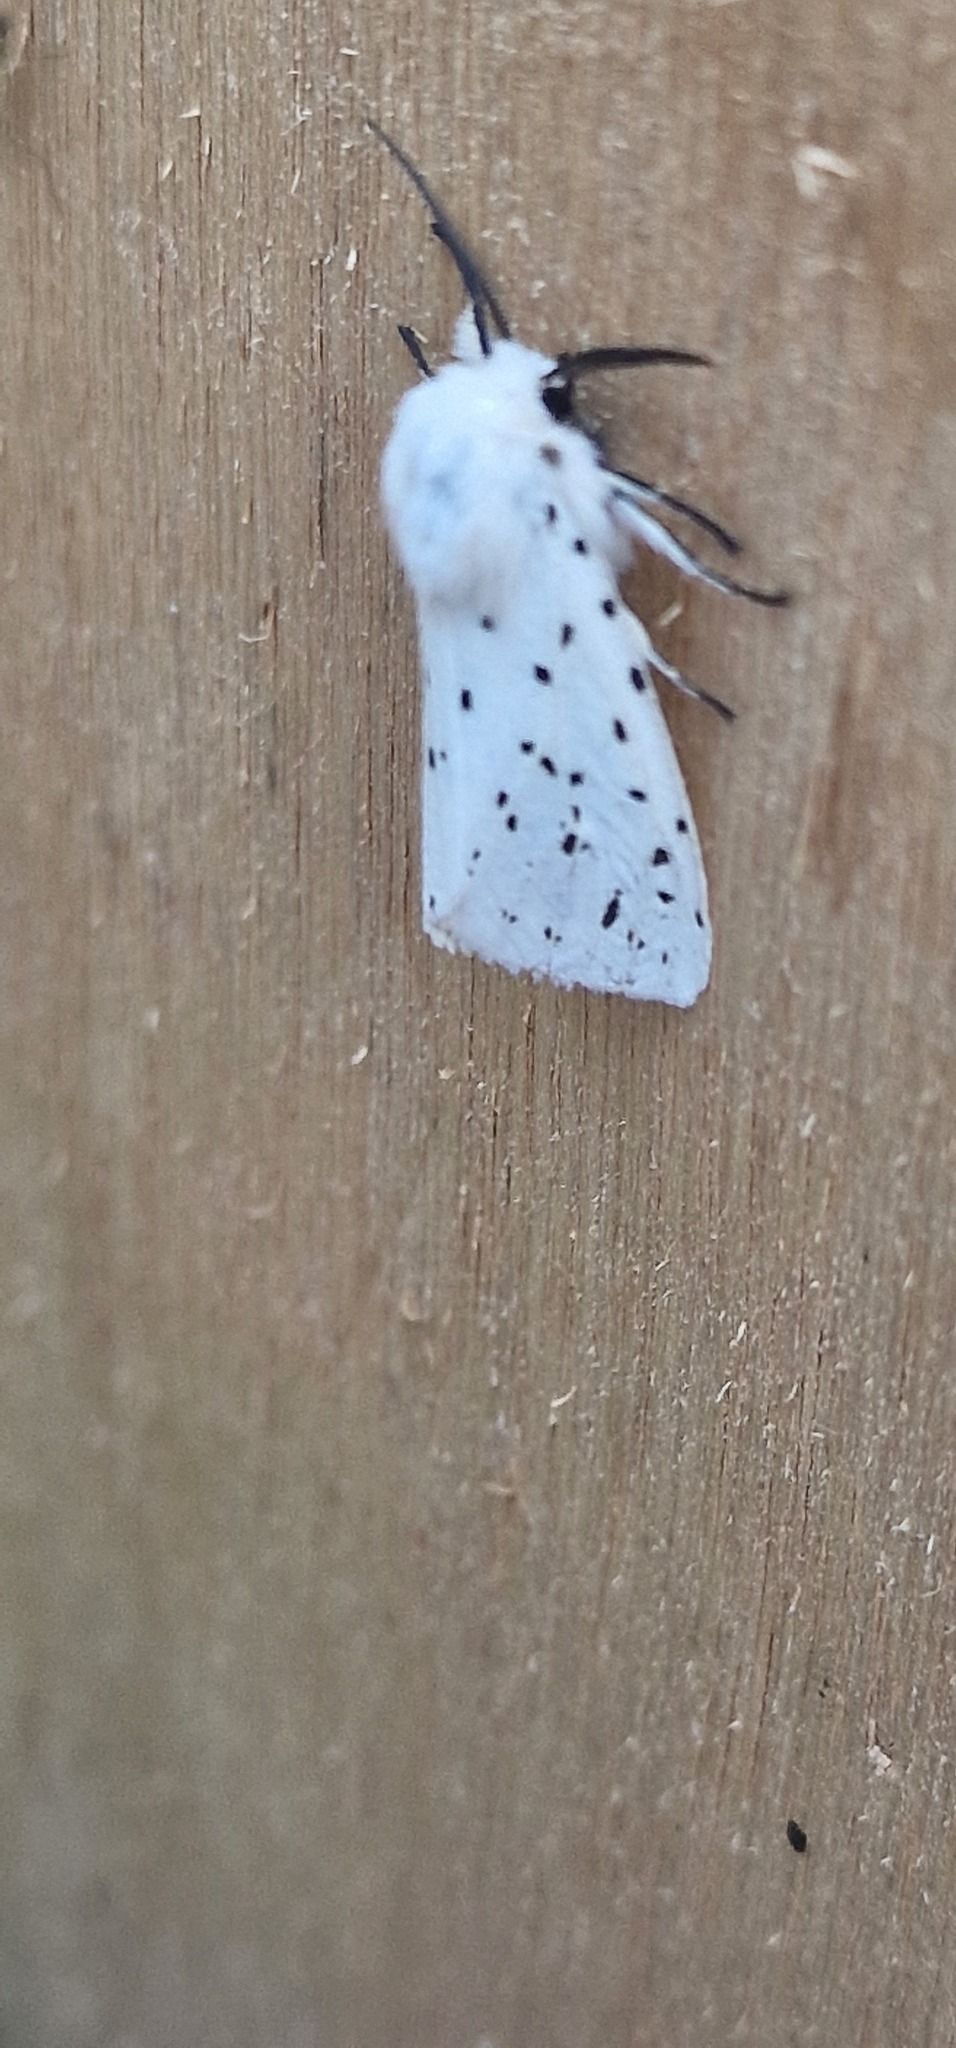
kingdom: Animalia
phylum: Arthropoda
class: Insecta
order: Lepidoptera
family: Erebidae
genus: Spilosoma
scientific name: Spilosoma lubricipeda
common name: White ermine
